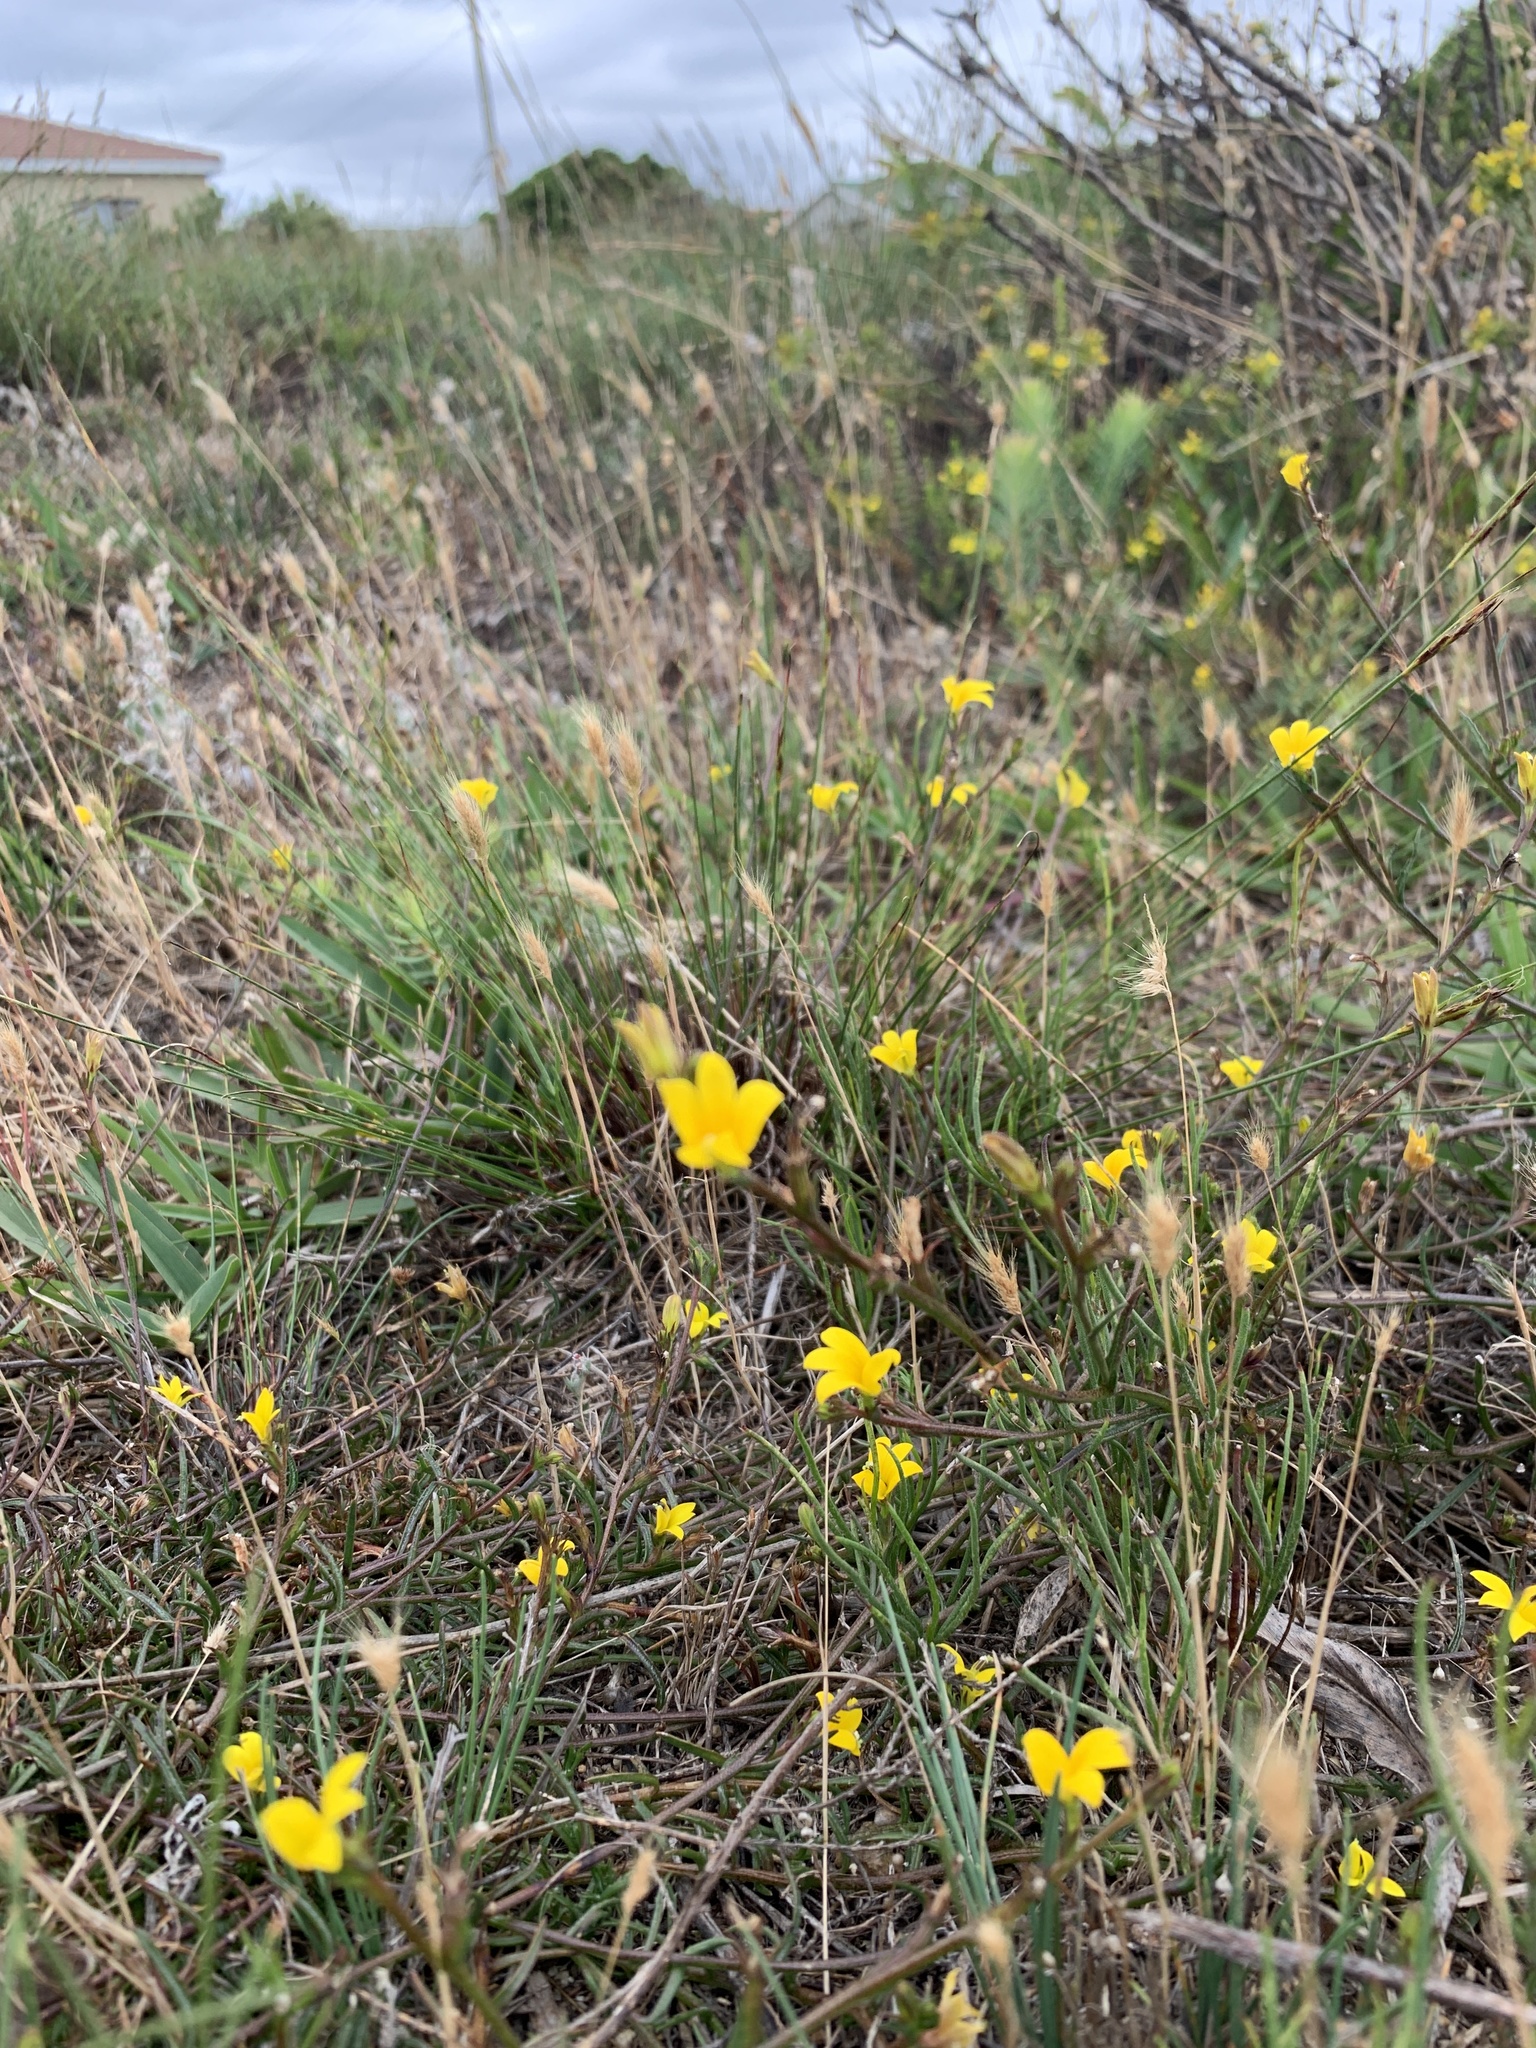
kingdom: Plantae
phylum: Tracheophyta
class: Magnoliopsida
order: Asterales
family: Campanulaceae
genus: Monopsis
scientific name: Monopsis lutea
